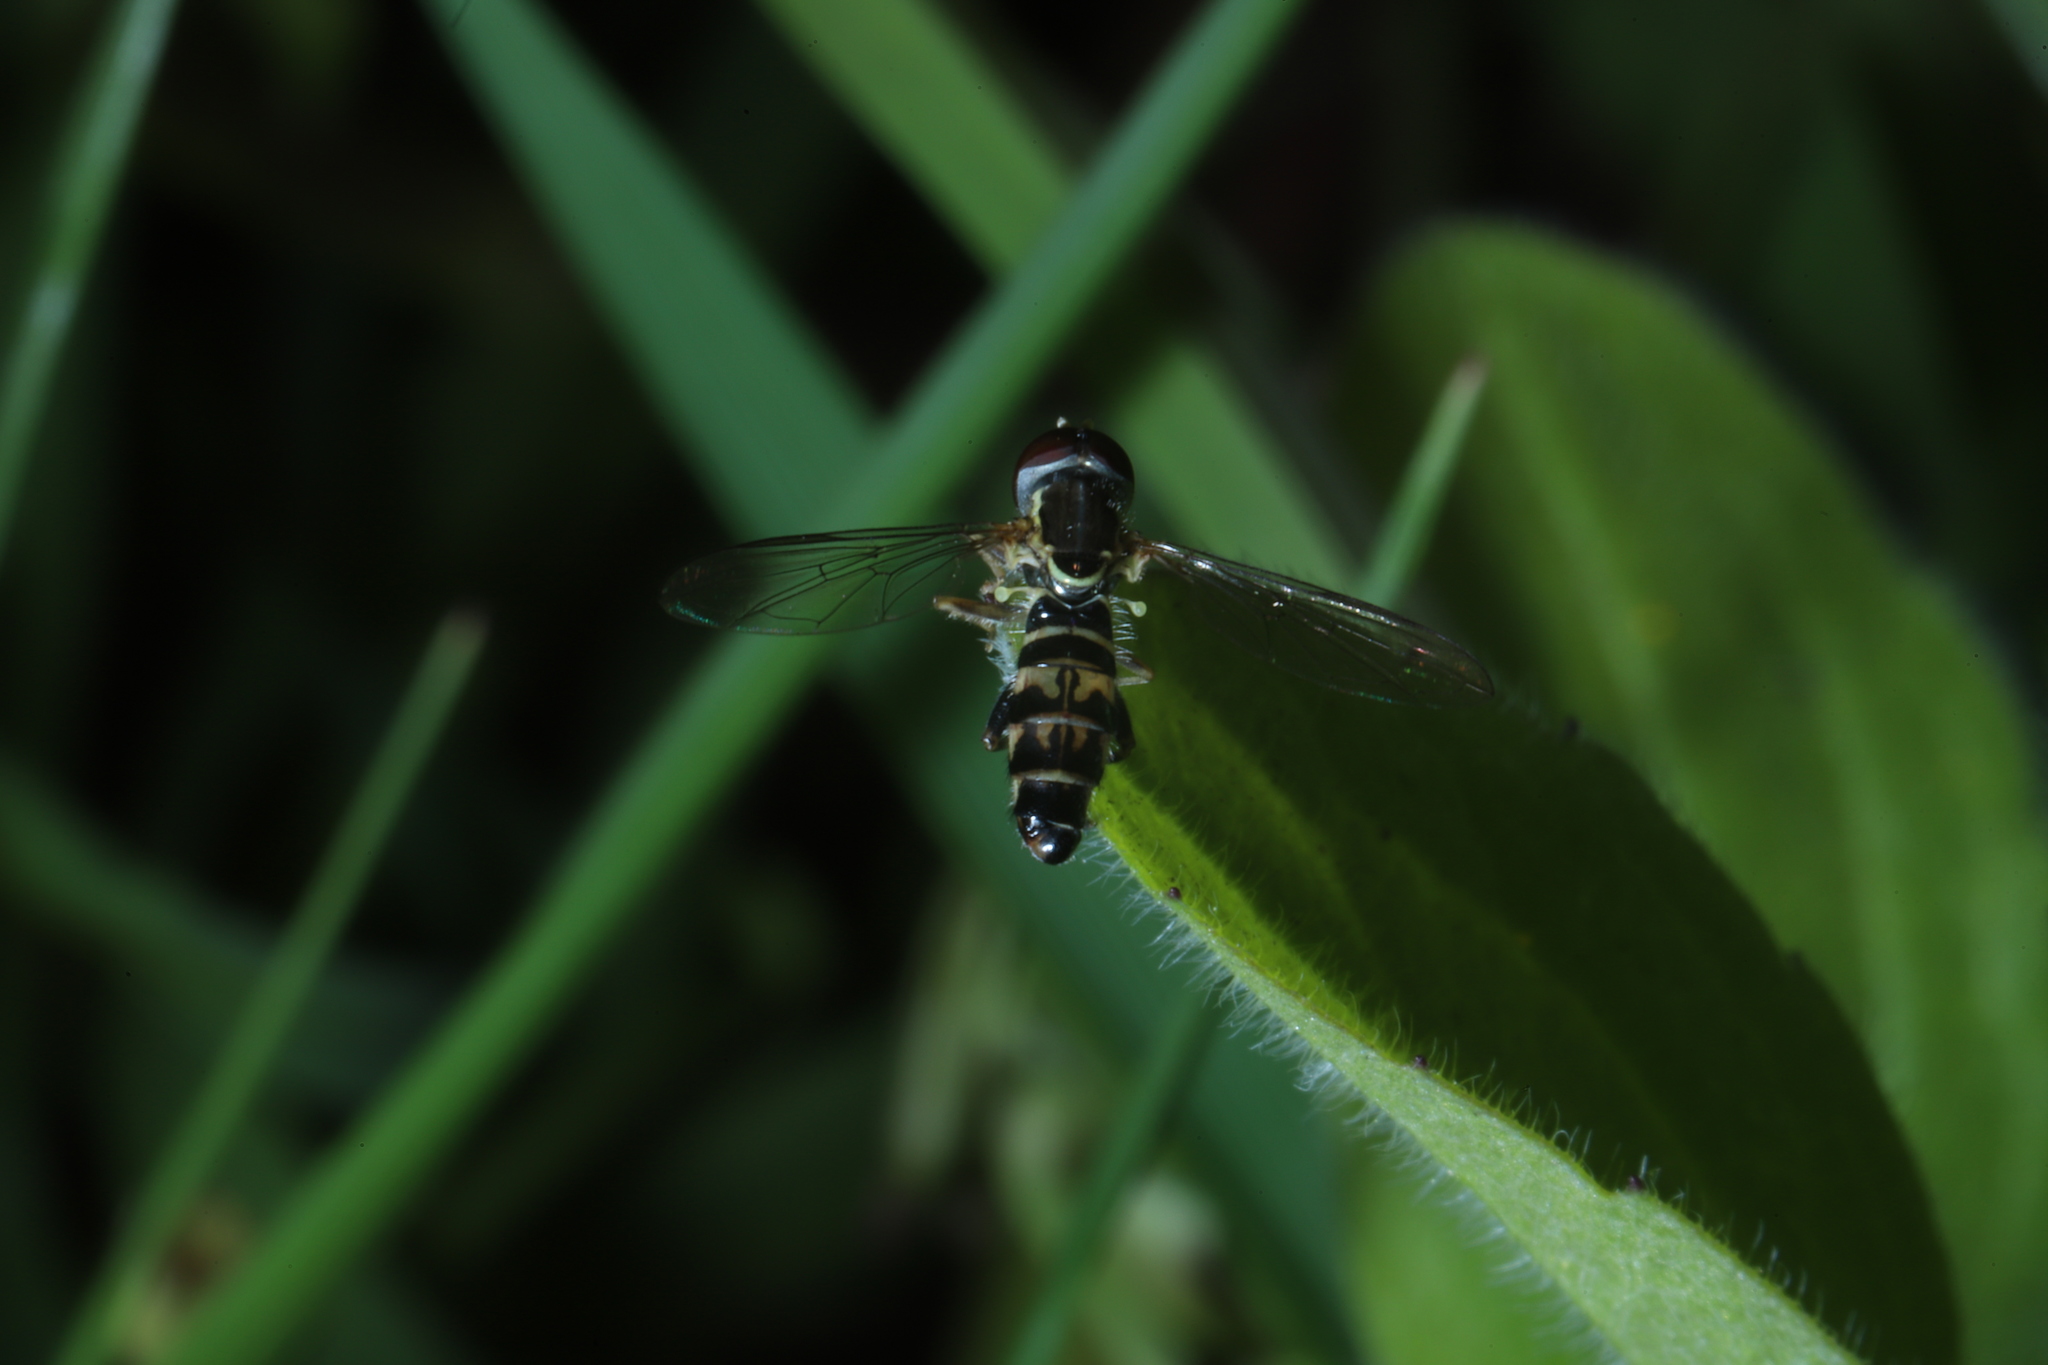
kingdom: Animalia
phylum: Arthropoda
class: Insecta
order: Diptera
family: Syrphidae
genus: Toxomerus
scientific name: Toxomerus geminatus
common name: Eastern calligrapher
